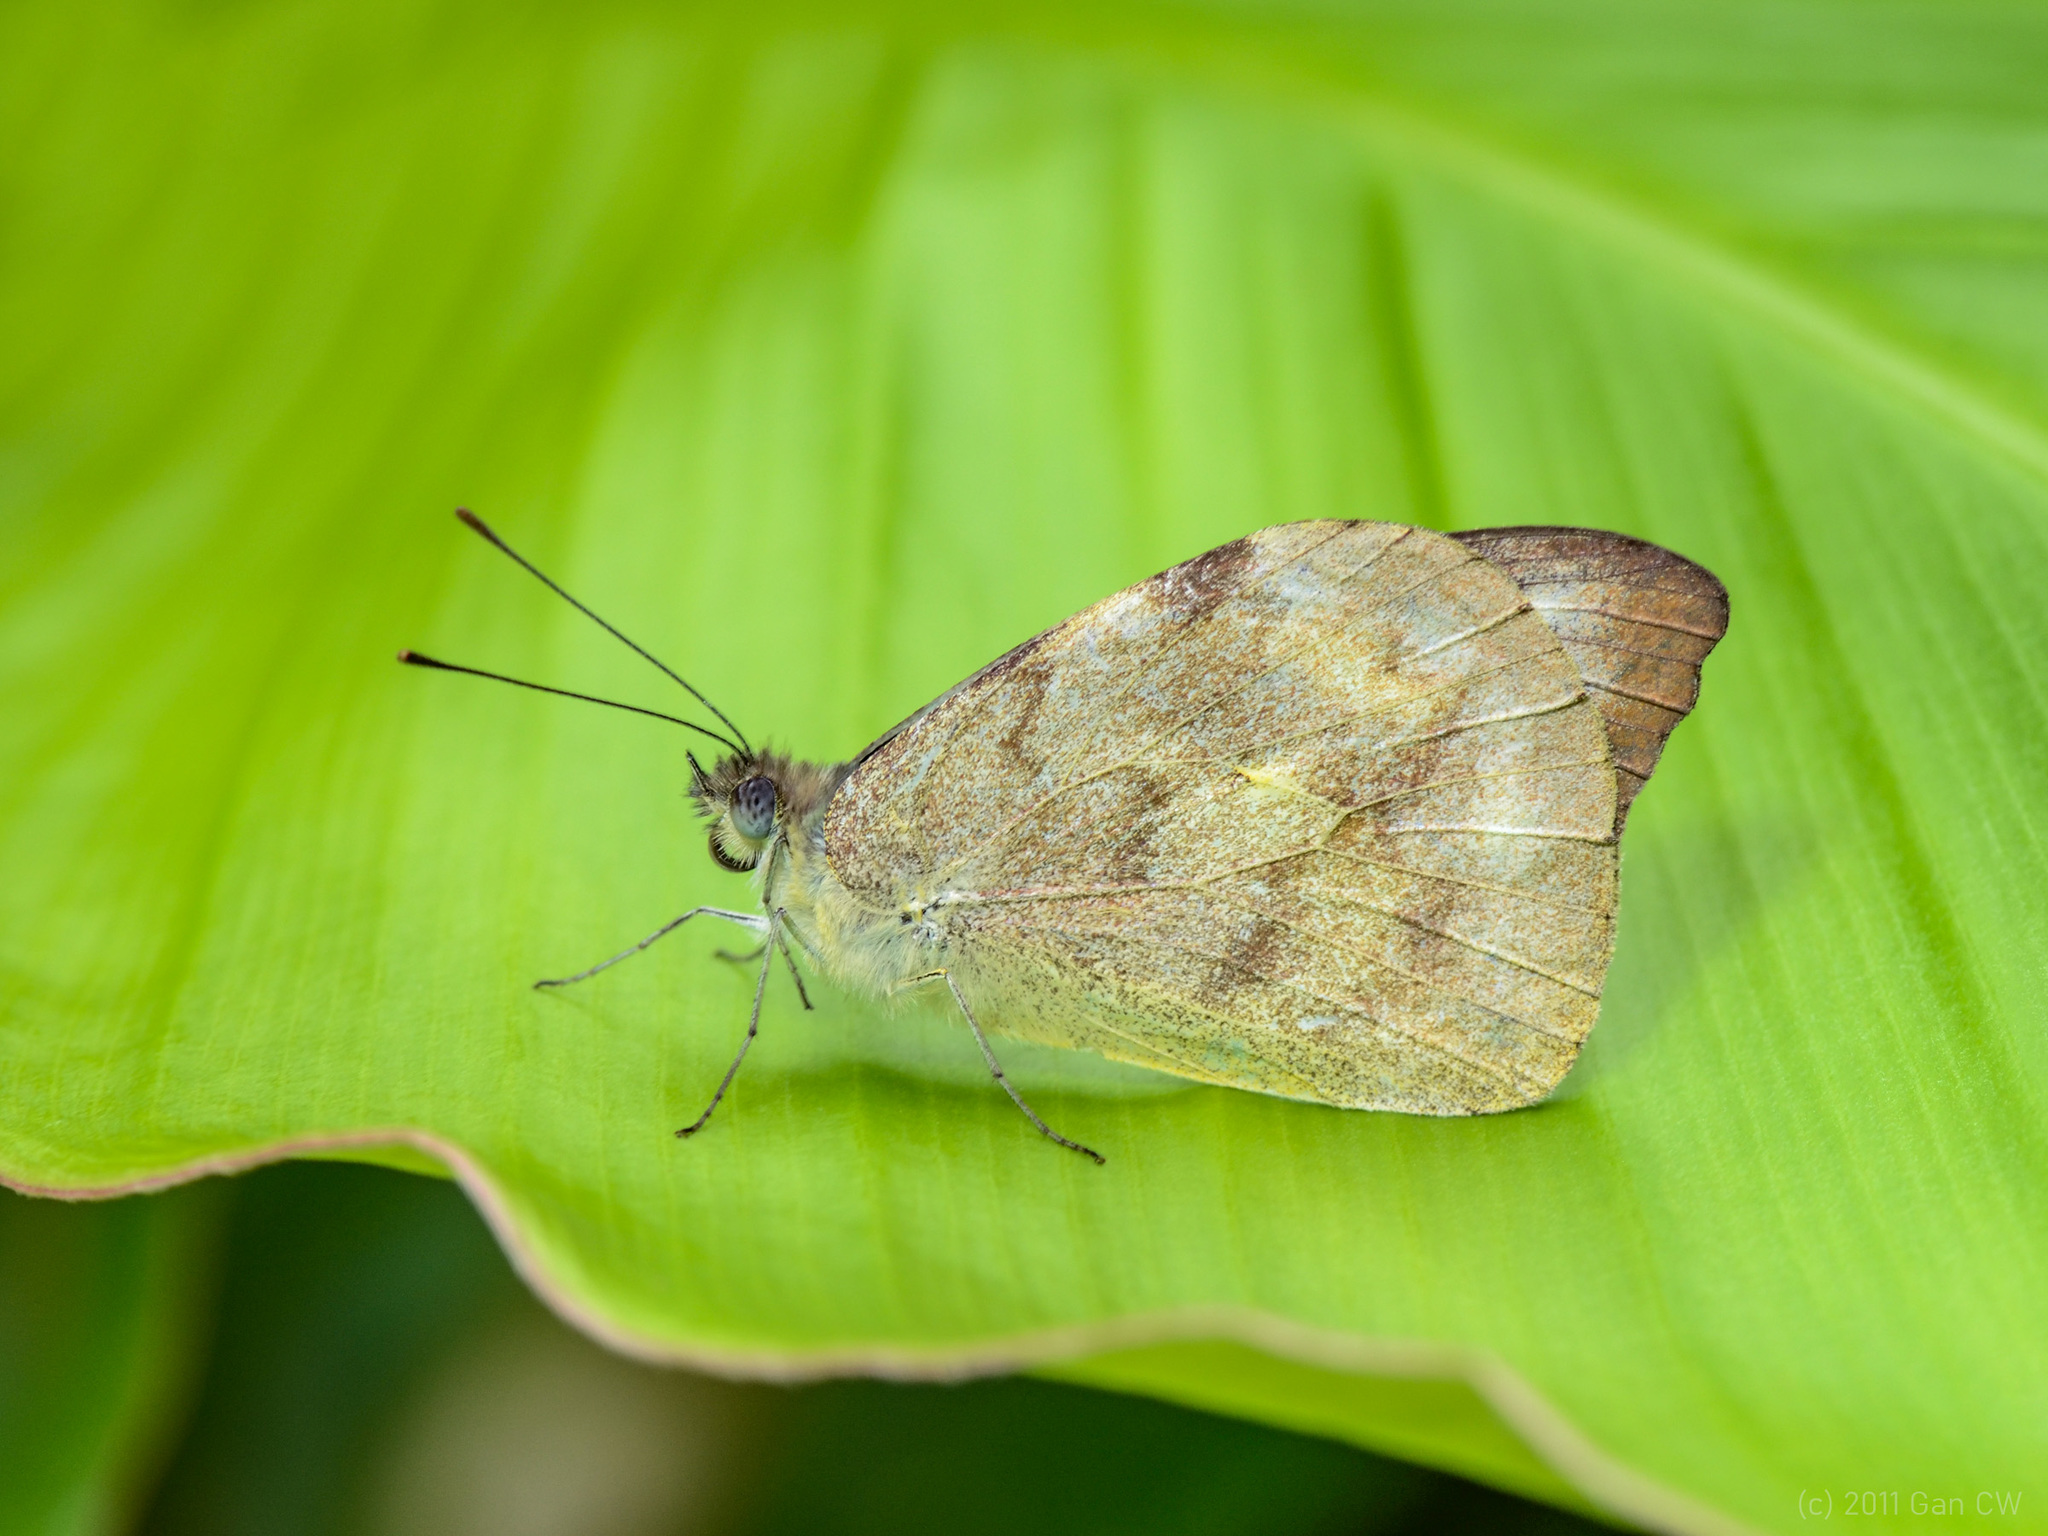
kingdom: Animalia
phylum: Arthropoda
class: Insecta
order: Lepidoptera
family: Pieridae
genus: Appias
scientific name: Appias lalassis
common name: Burmese puffin
